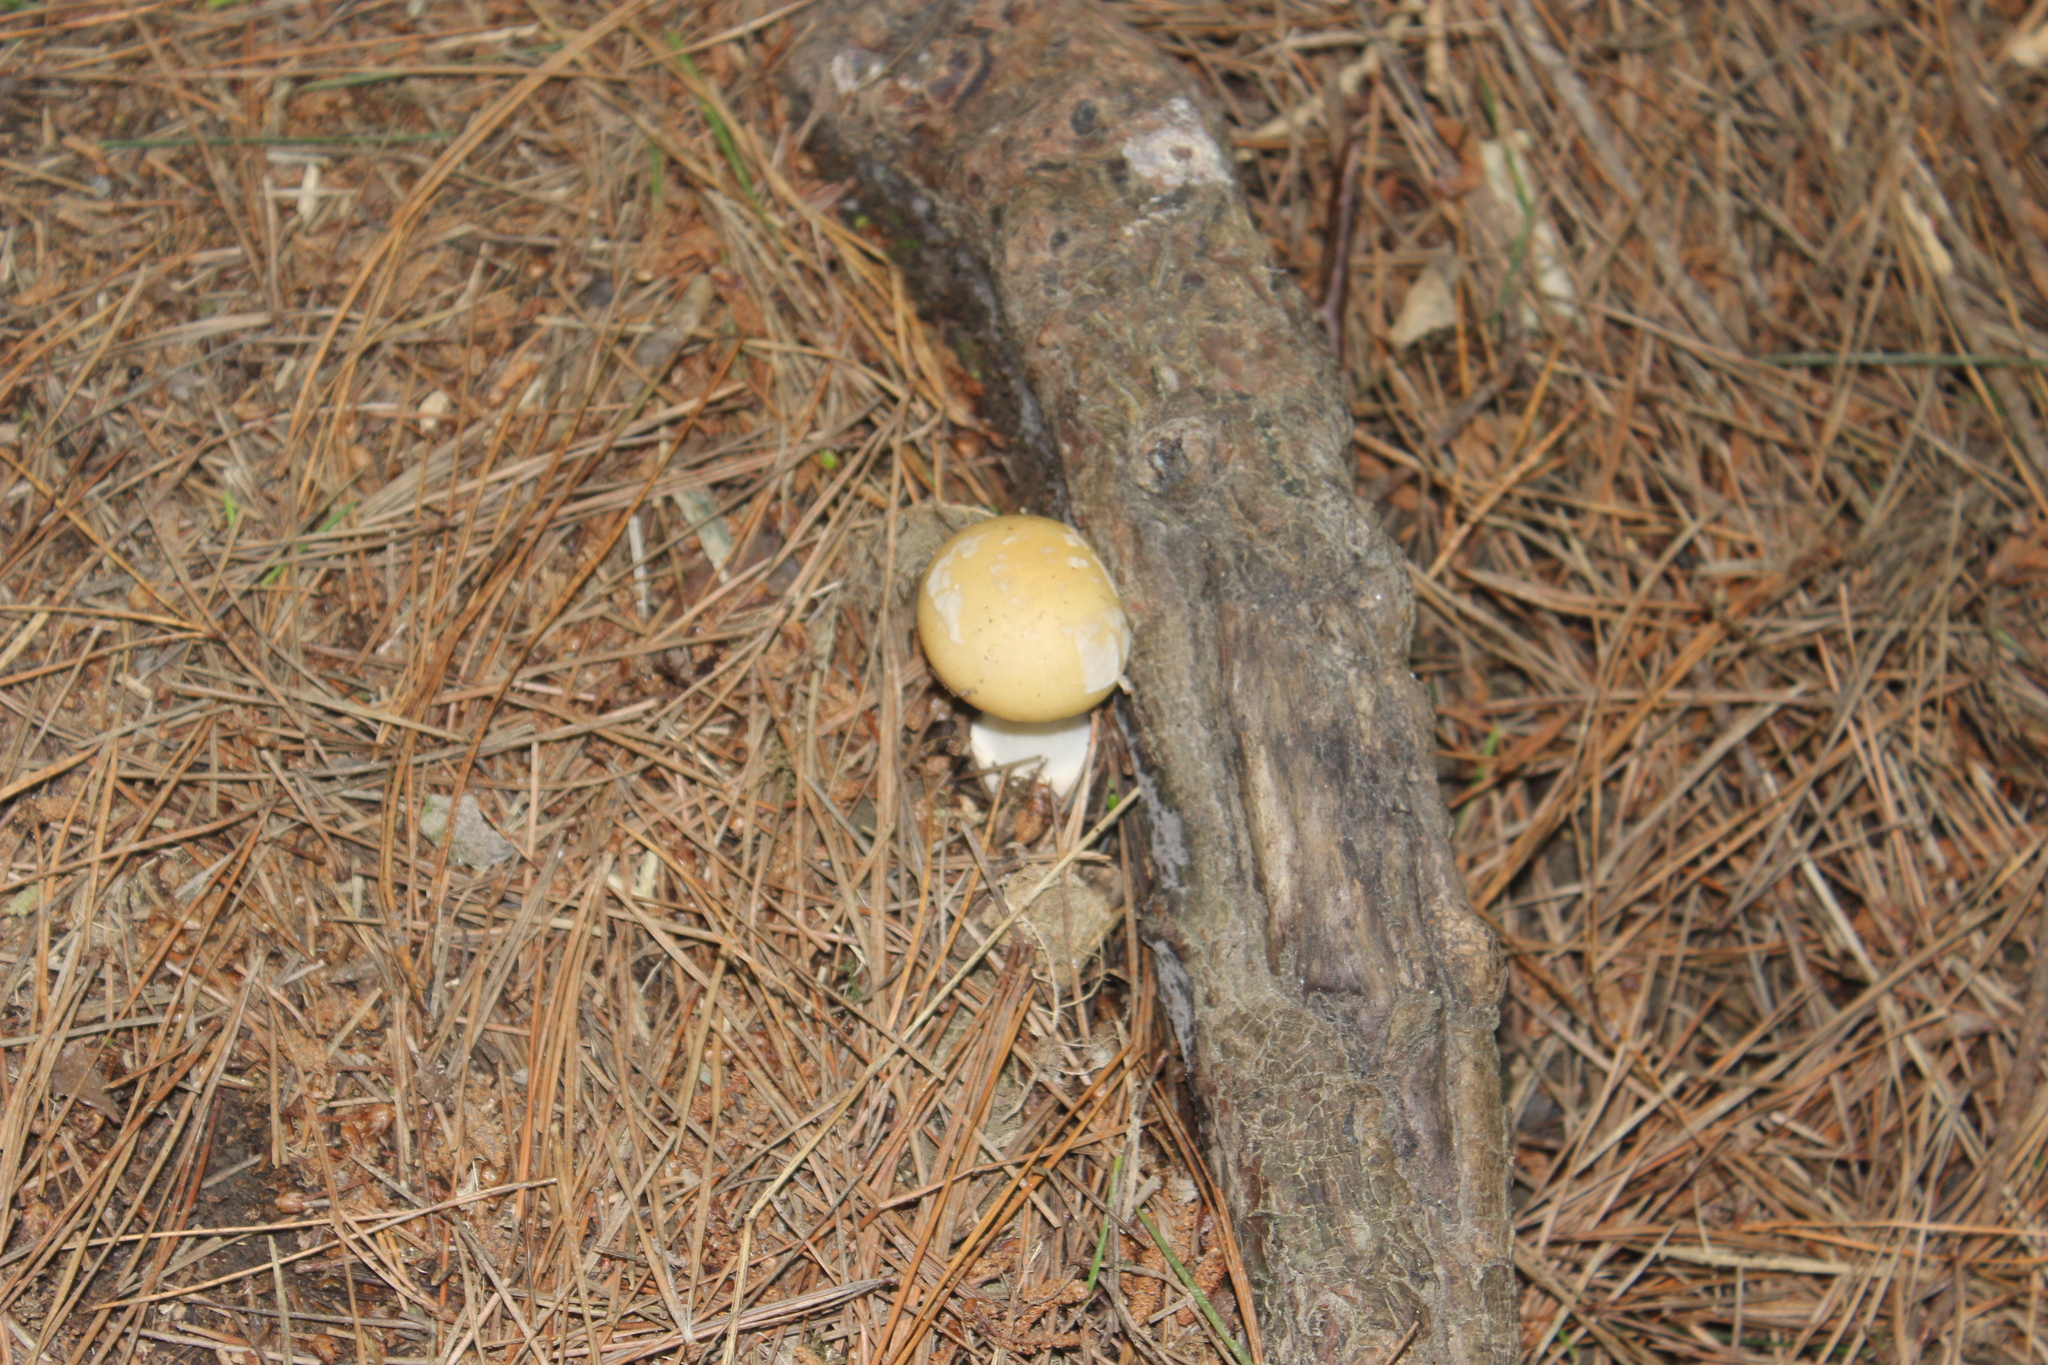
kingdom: Fungi
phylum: Basidiomycota
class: Agaricomycetes
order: Agaricales
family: Amanitaceae
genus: Amanita
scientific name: Amanita gemmata
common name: Jewelled amanita
